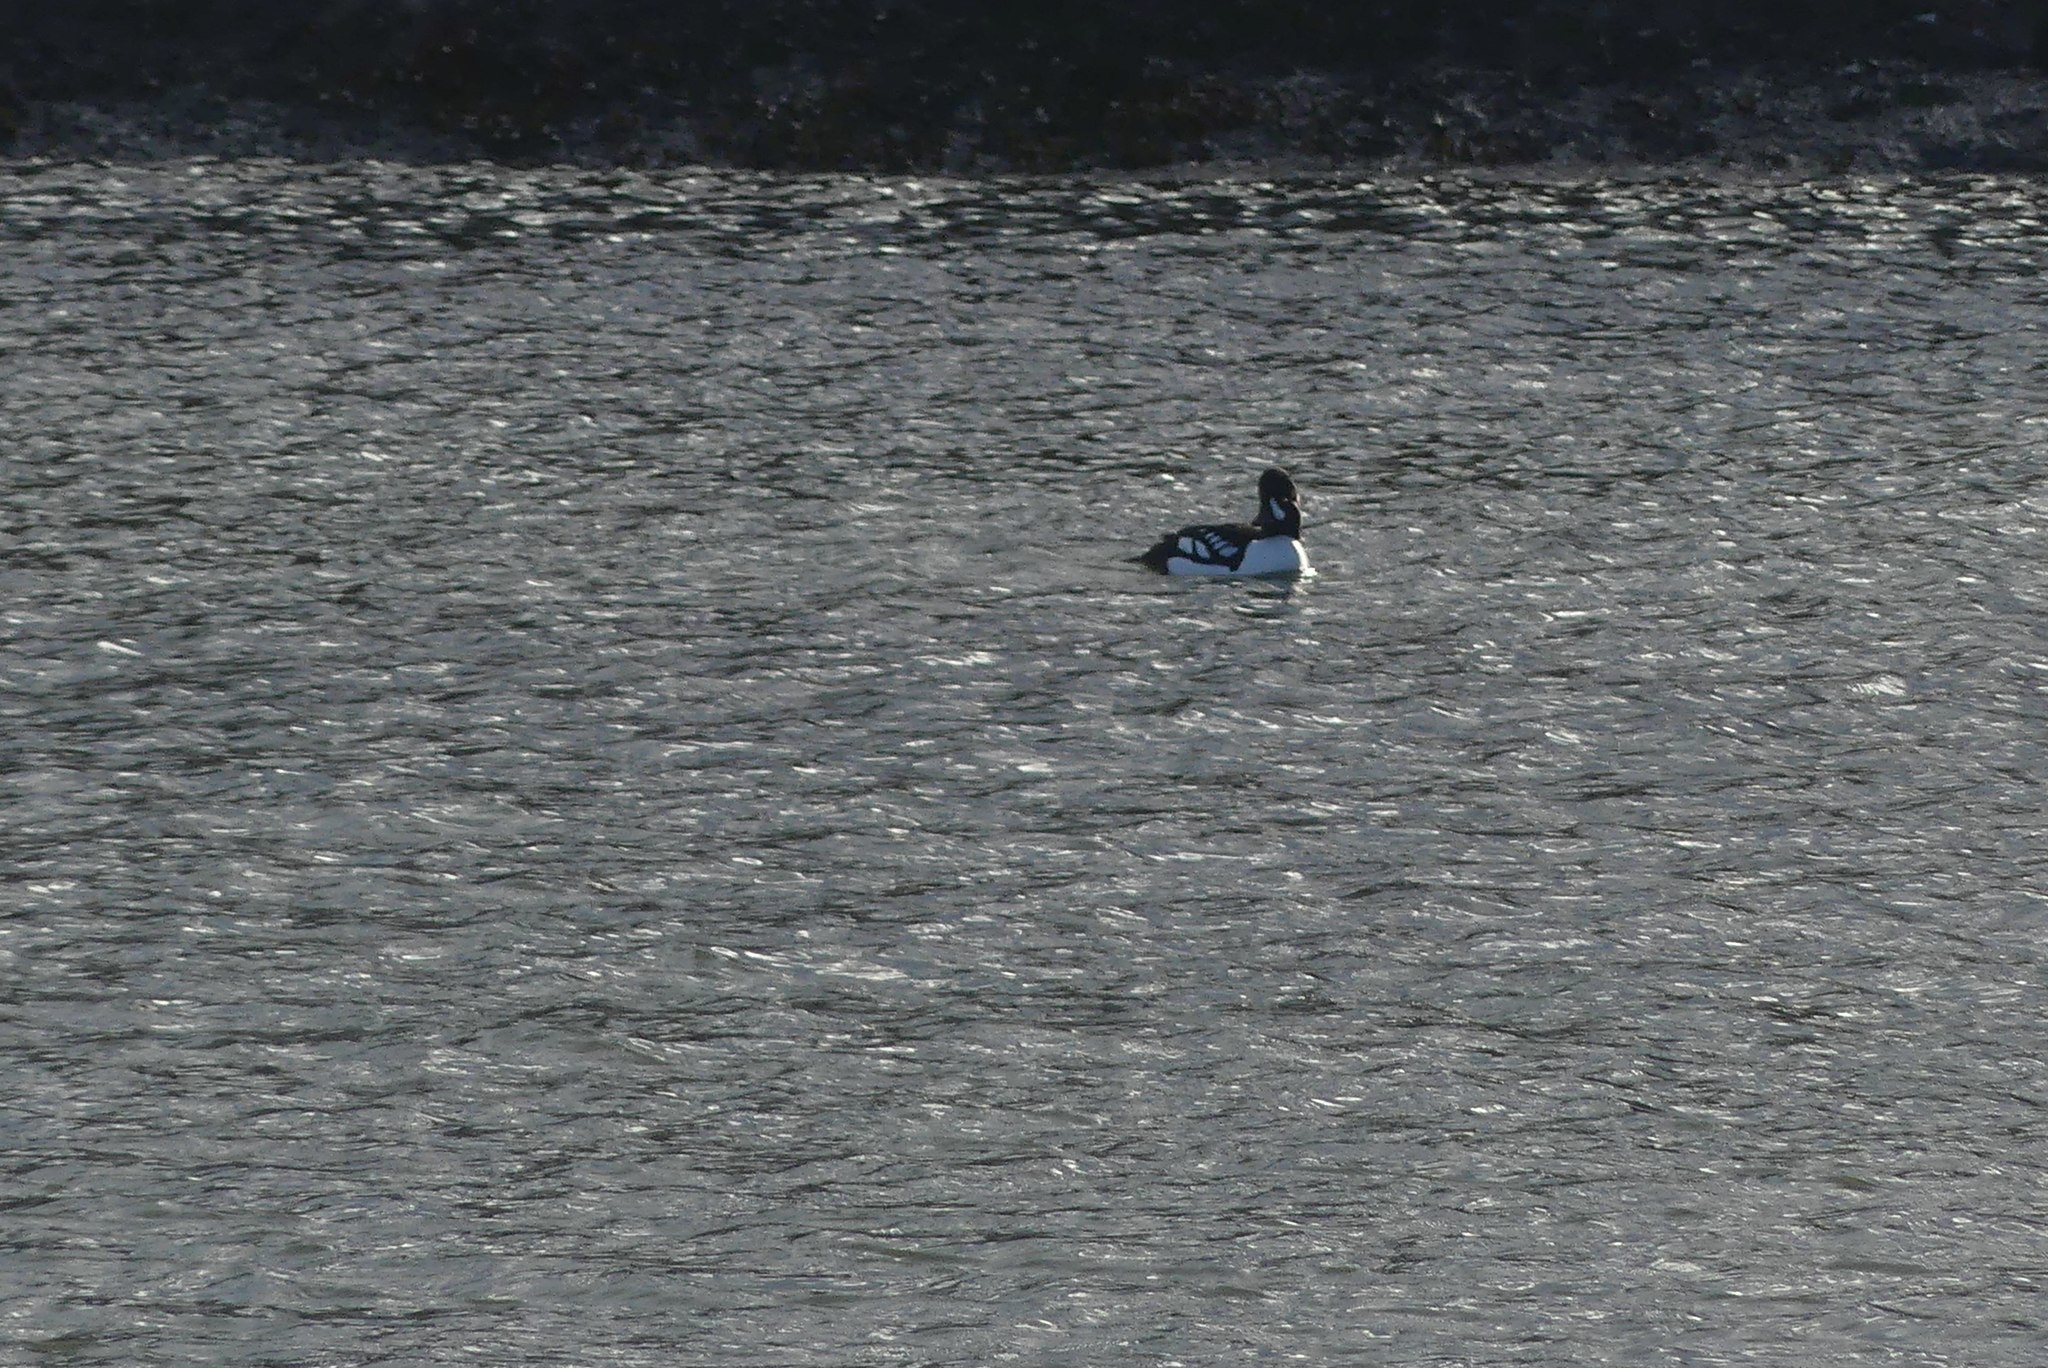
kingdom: Animalia
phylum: Chordata
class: Aves
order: Anseriformes
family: Anatidae
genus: Bucephala
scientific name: Bucephala islandica
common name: Barrow's goldeneye
